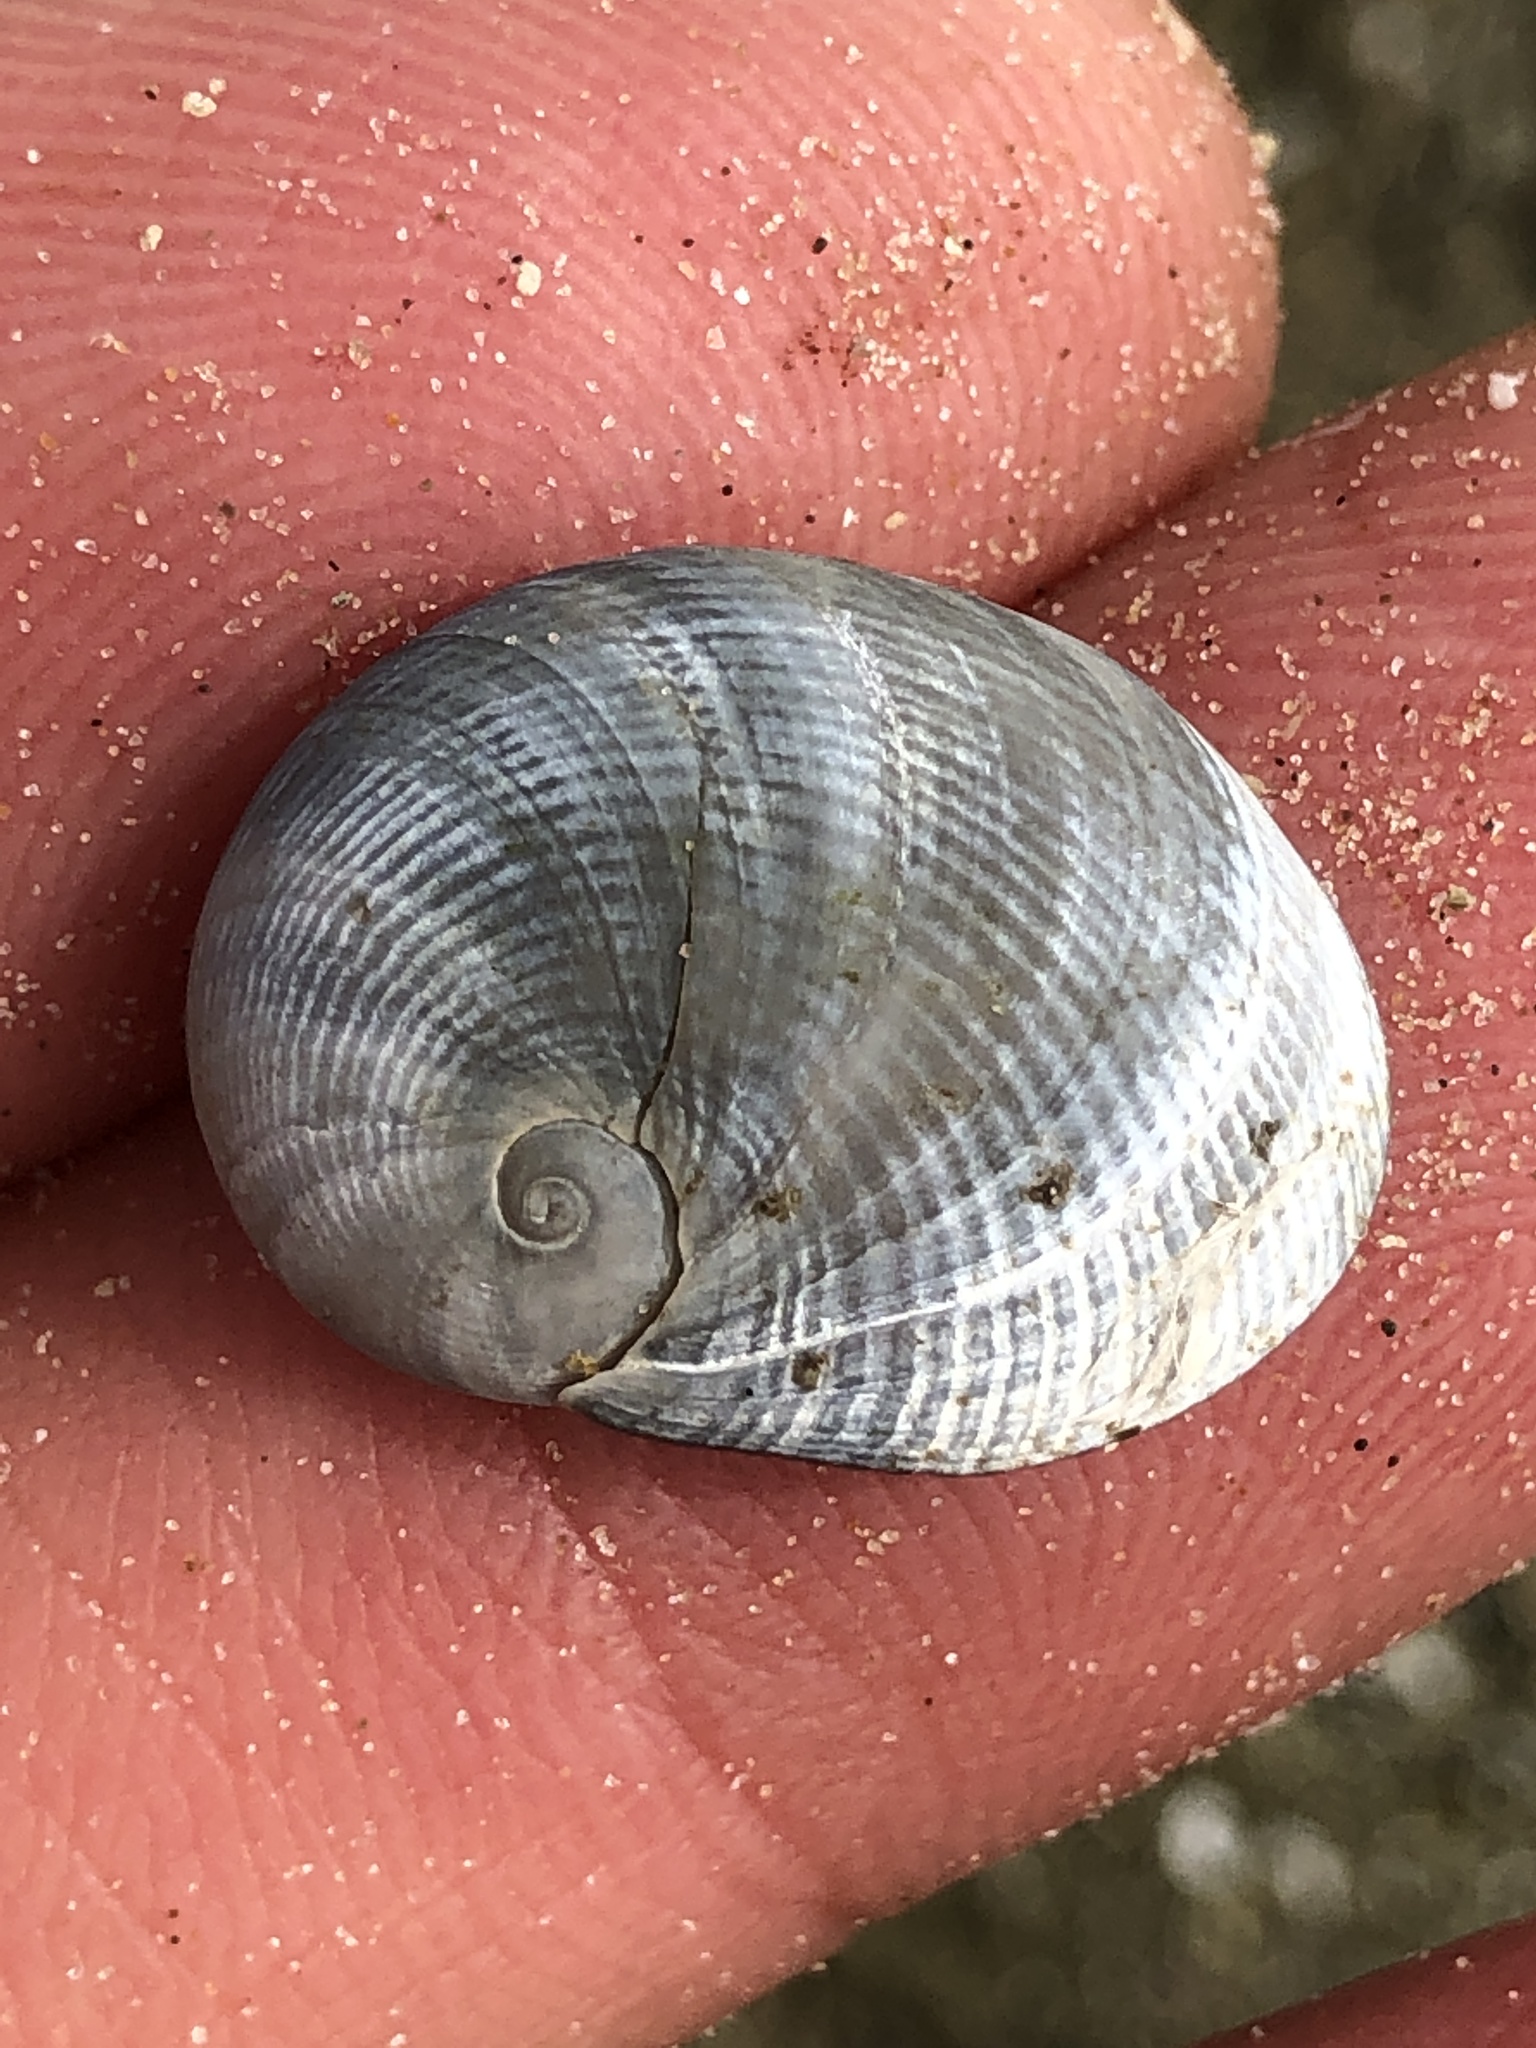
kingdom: Animalia
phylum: Mollusca
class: Gastropoda
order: Littorinimorpha
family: Naticidae
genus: Sinum
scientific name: Sinum perspectivum
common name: White baby ear
